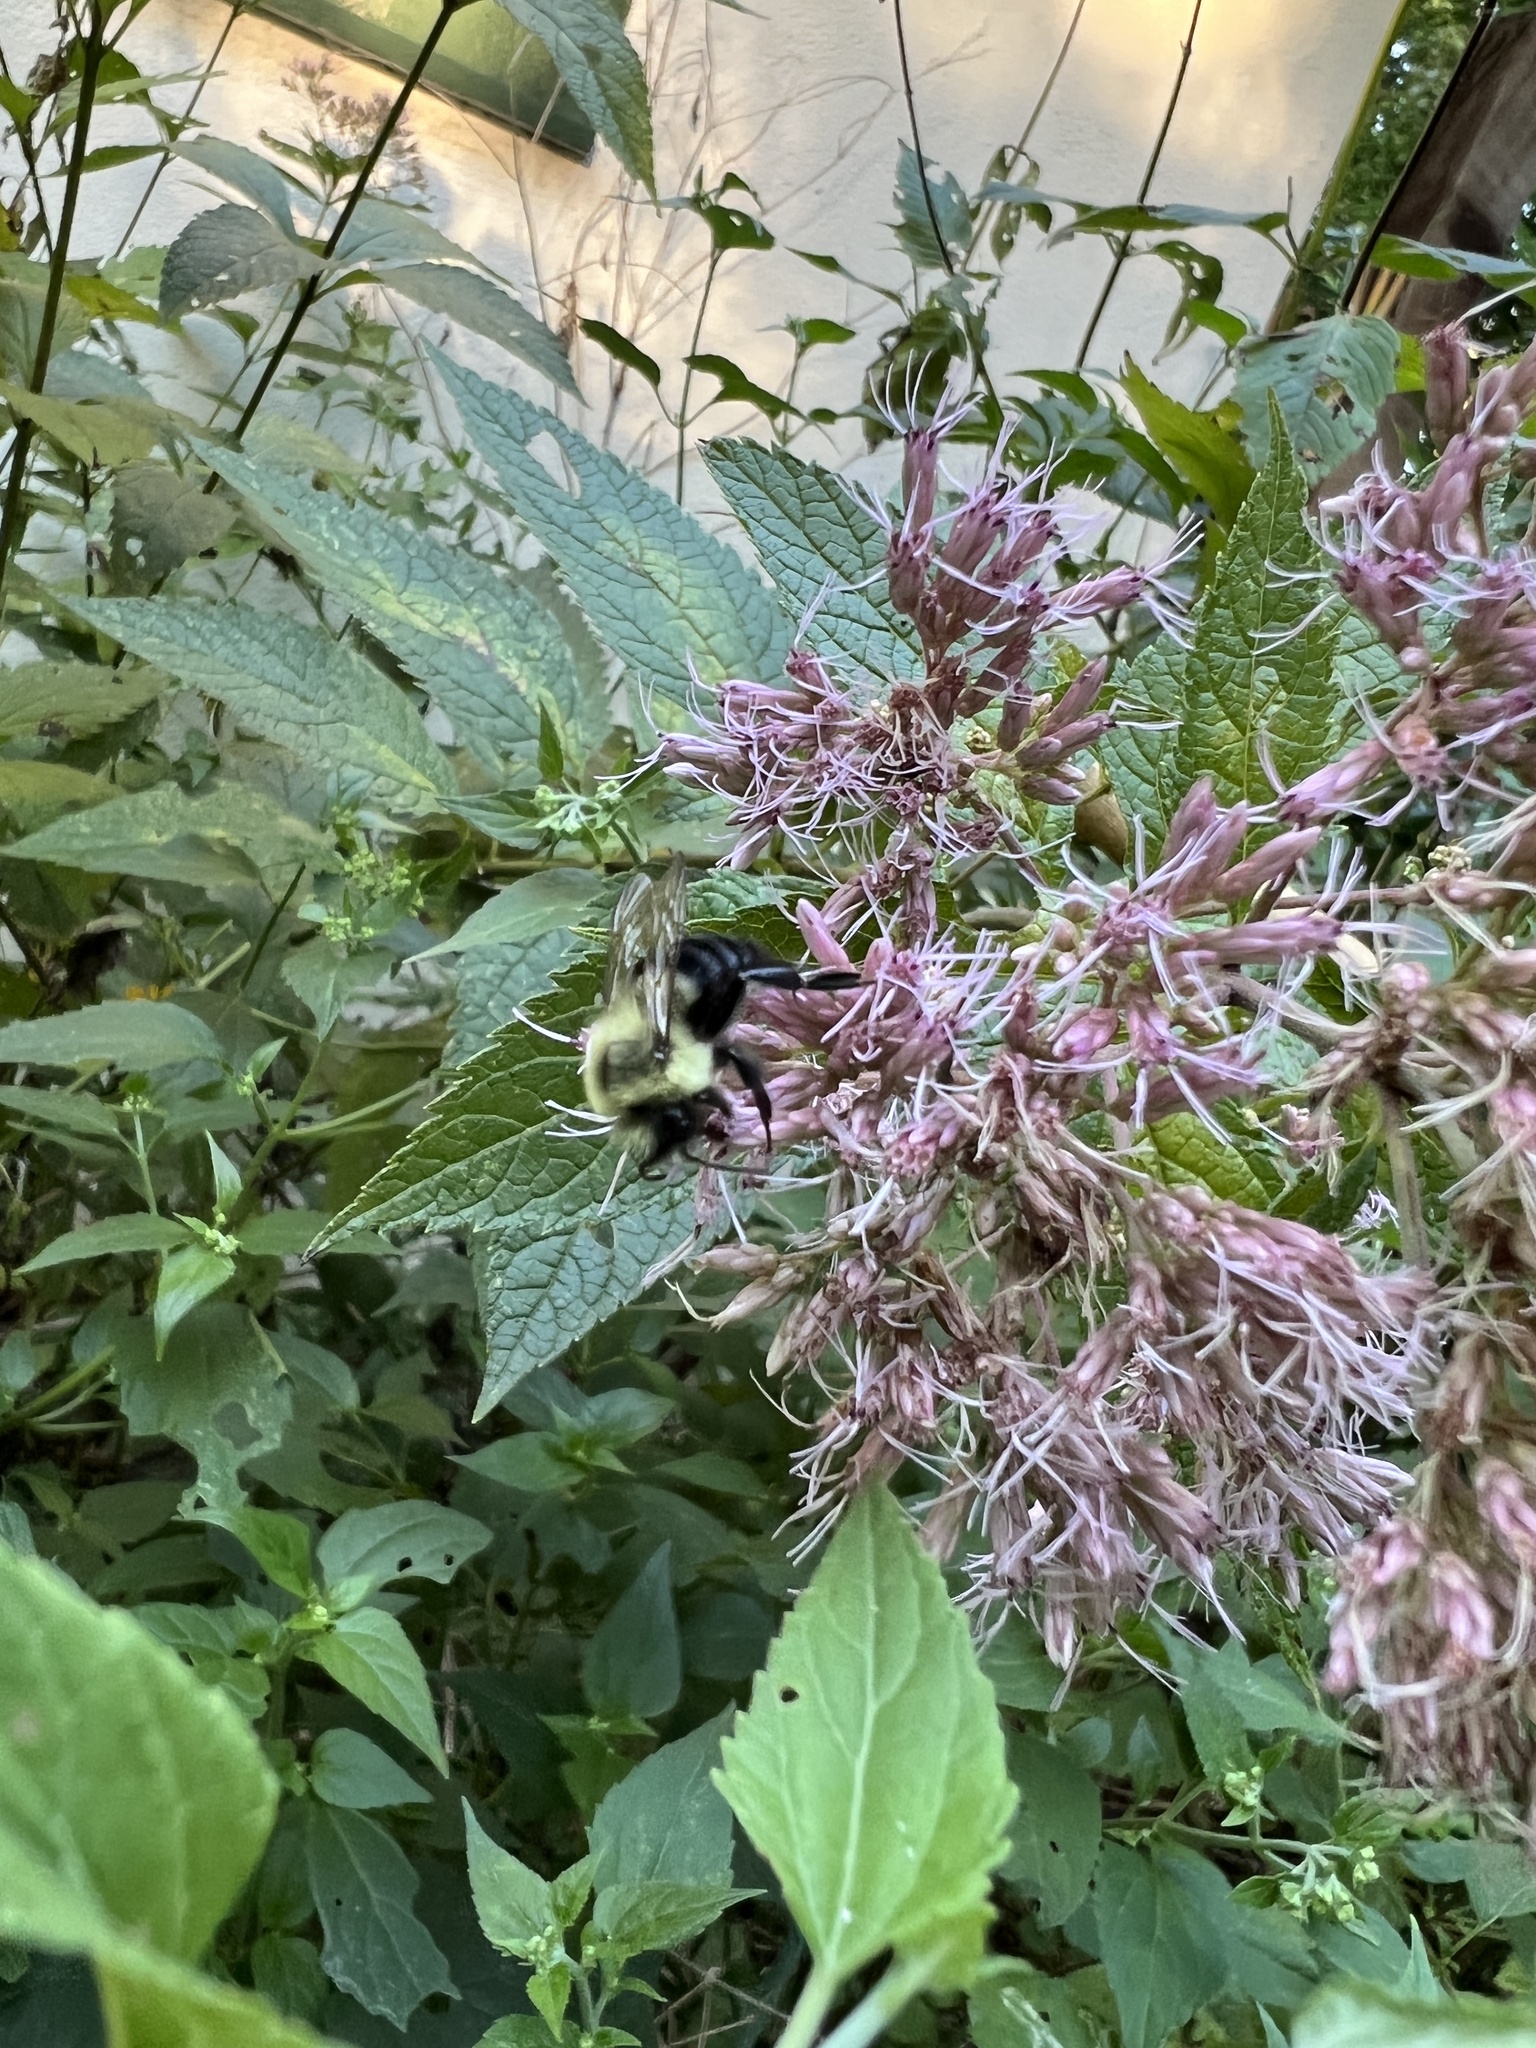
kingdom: Animalia
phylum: Arthropoda
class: Insecta
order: Hymenoptera
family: Apidae
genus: Bombus
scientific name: Bombus impatiens
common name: Common eastern bumble bee
